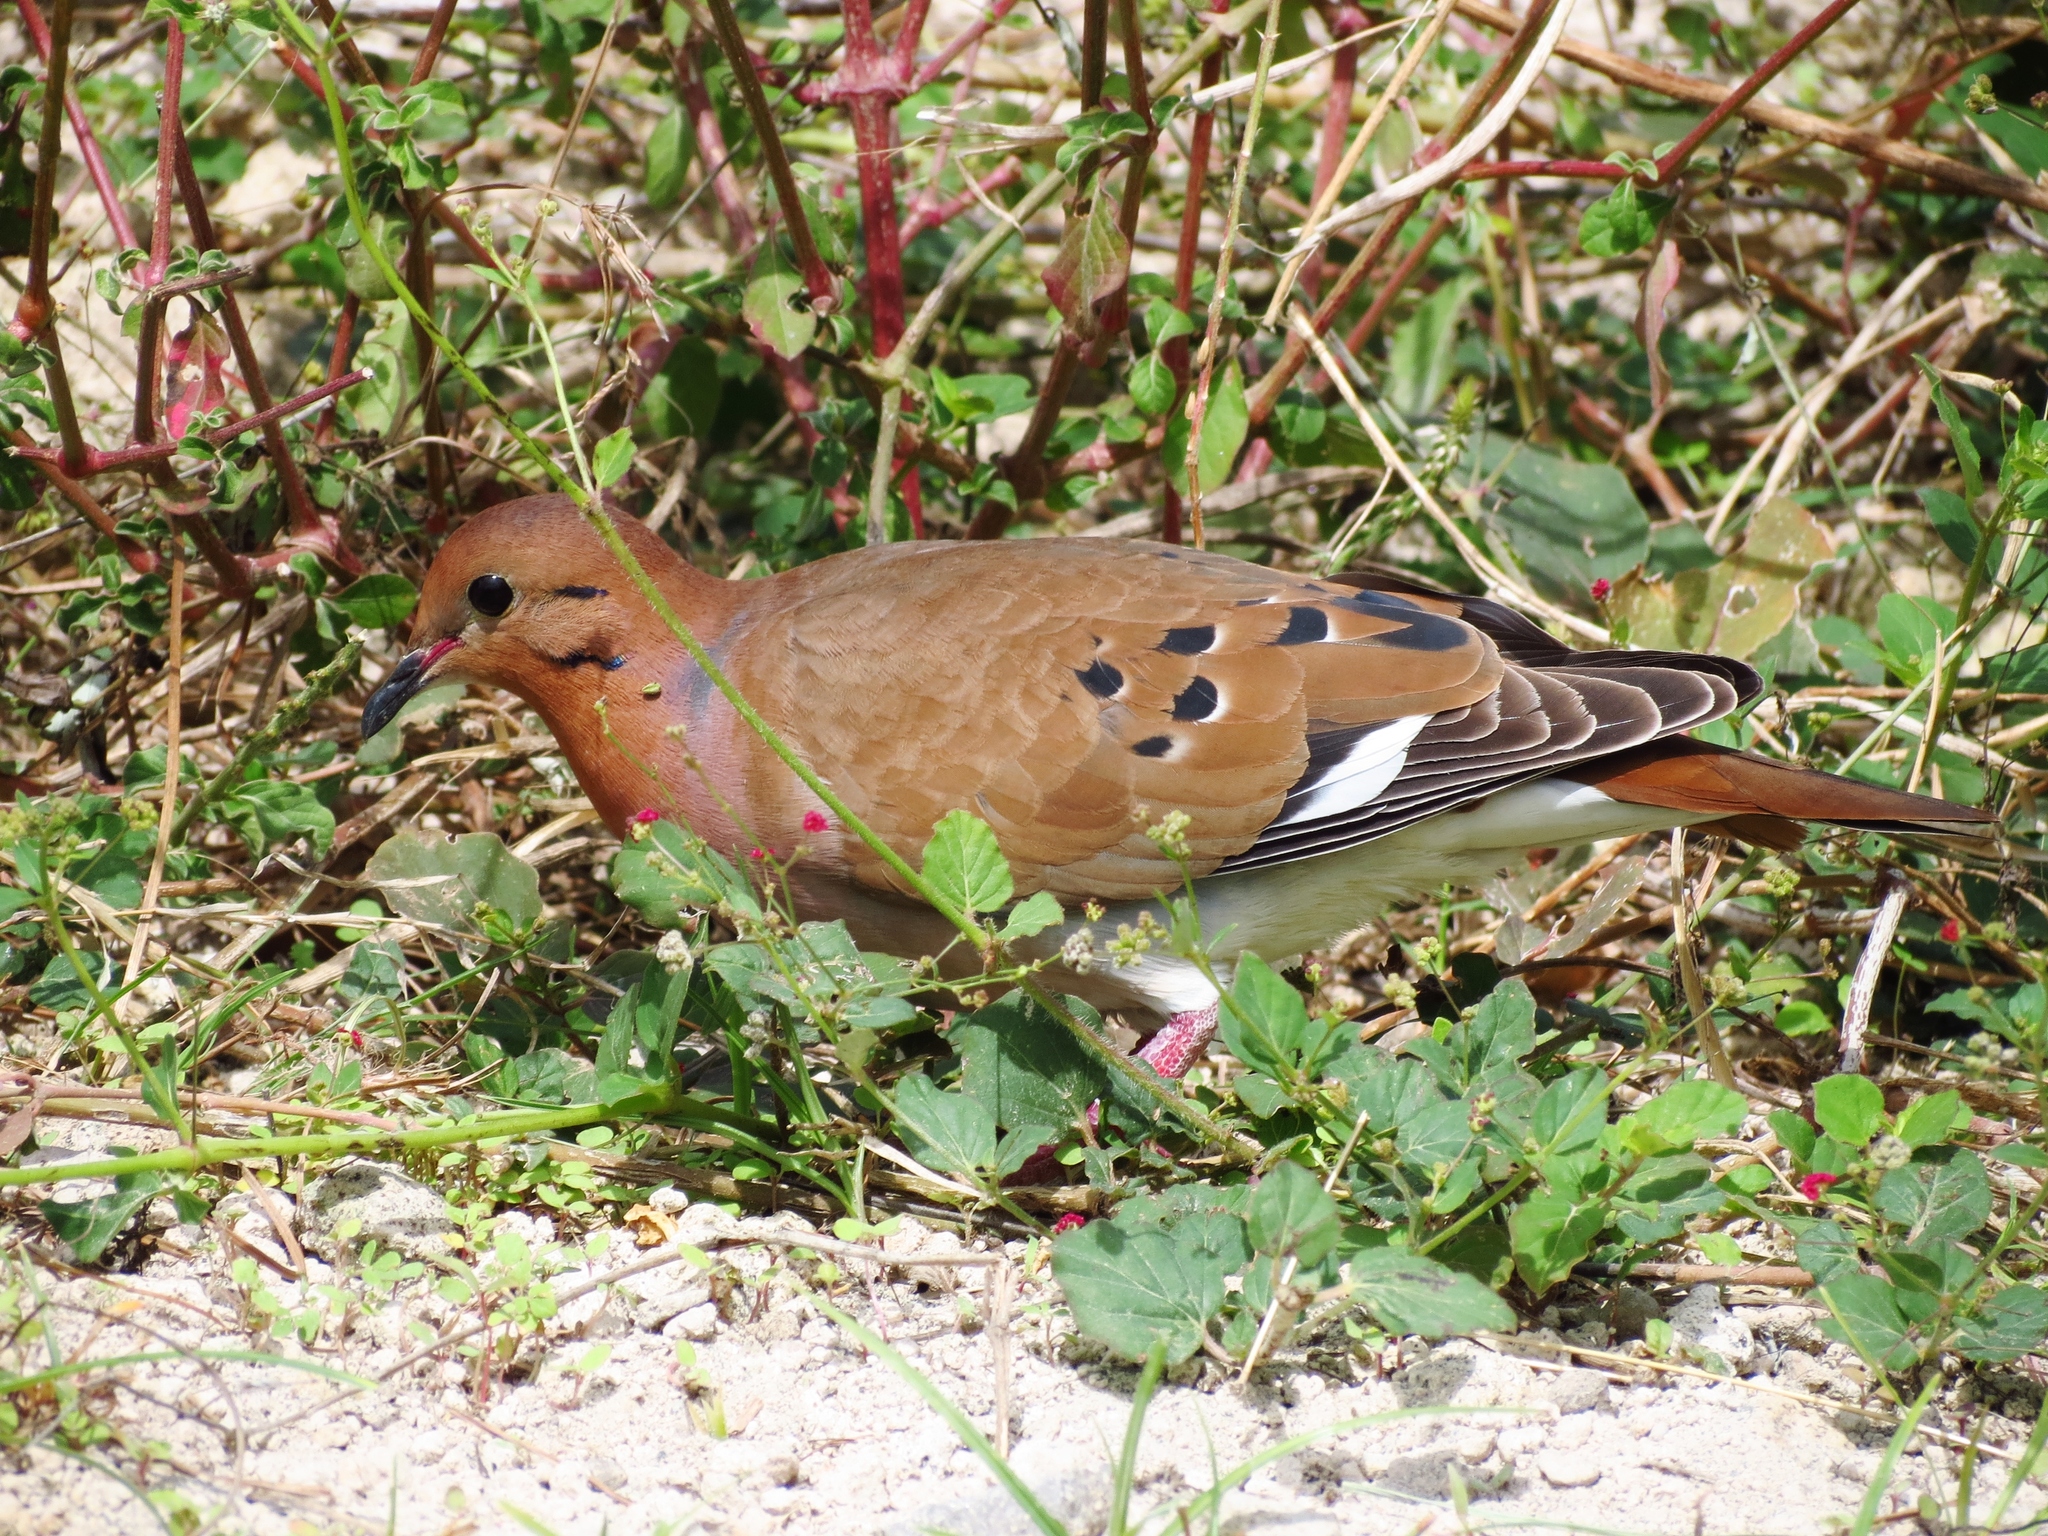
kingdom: Animalia
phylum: Chordata
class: Aves
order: Columbiformes
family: Columbidae
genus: Zenaida
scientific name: Zenaida aurita
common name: Zenaida dove
